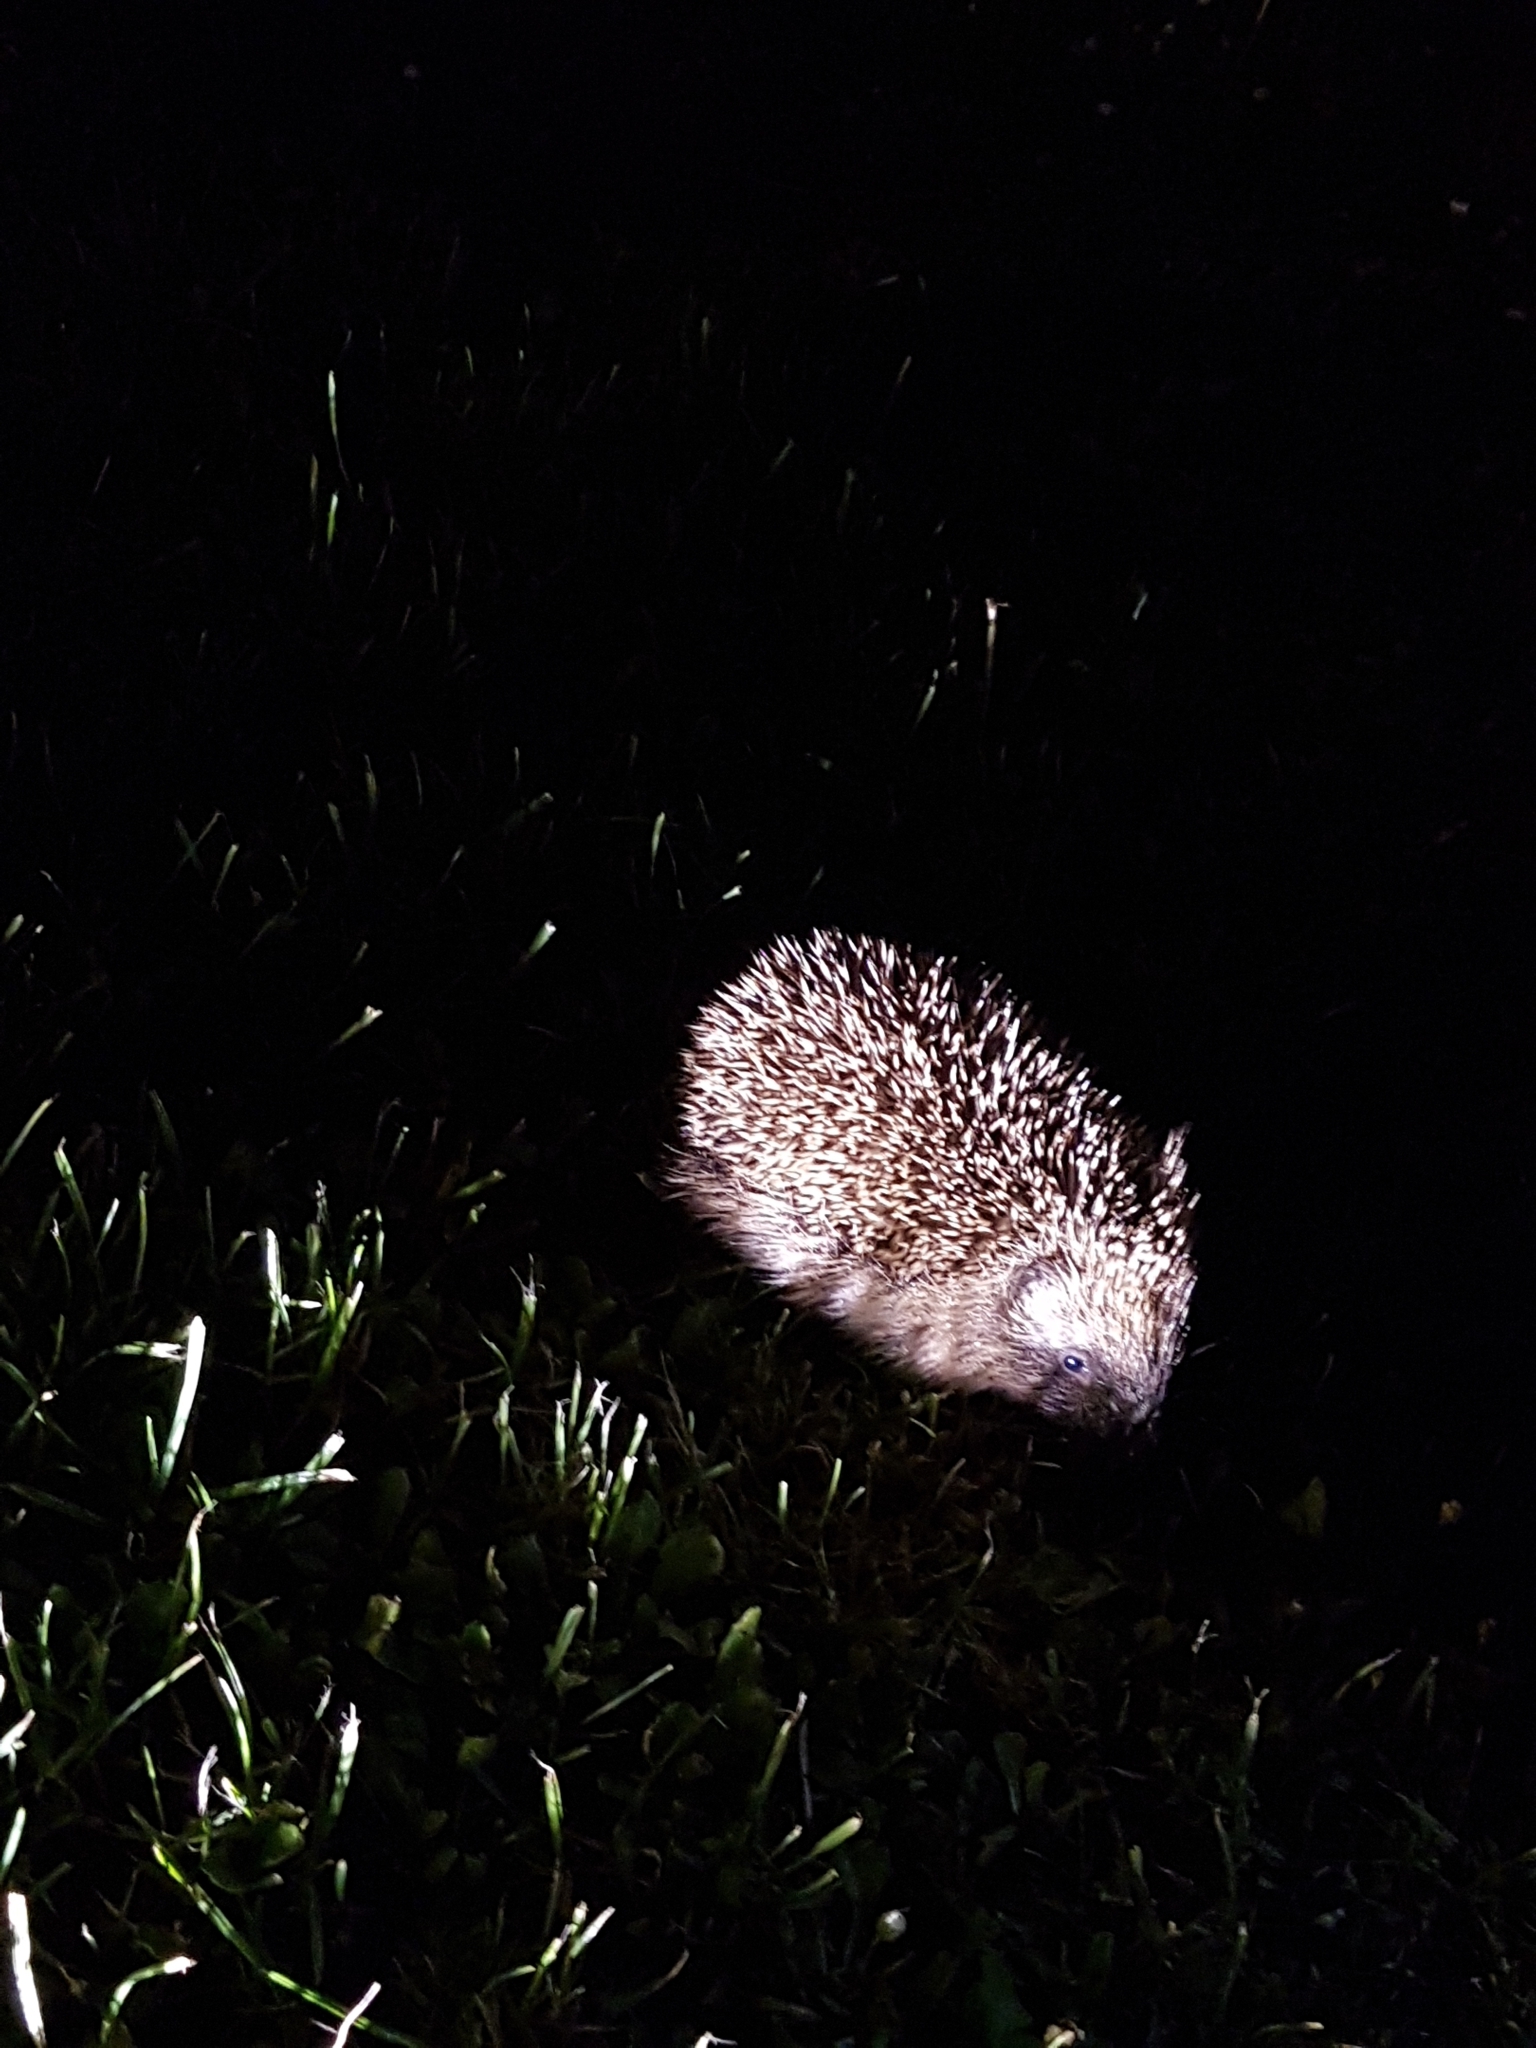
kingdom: Animalia
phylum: Chordata
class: Mammalia
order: Erinaceomorpha
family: Erinaceidae
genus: Erinaceus
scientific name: Erinaceus europaeus
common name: West european hedgehog
